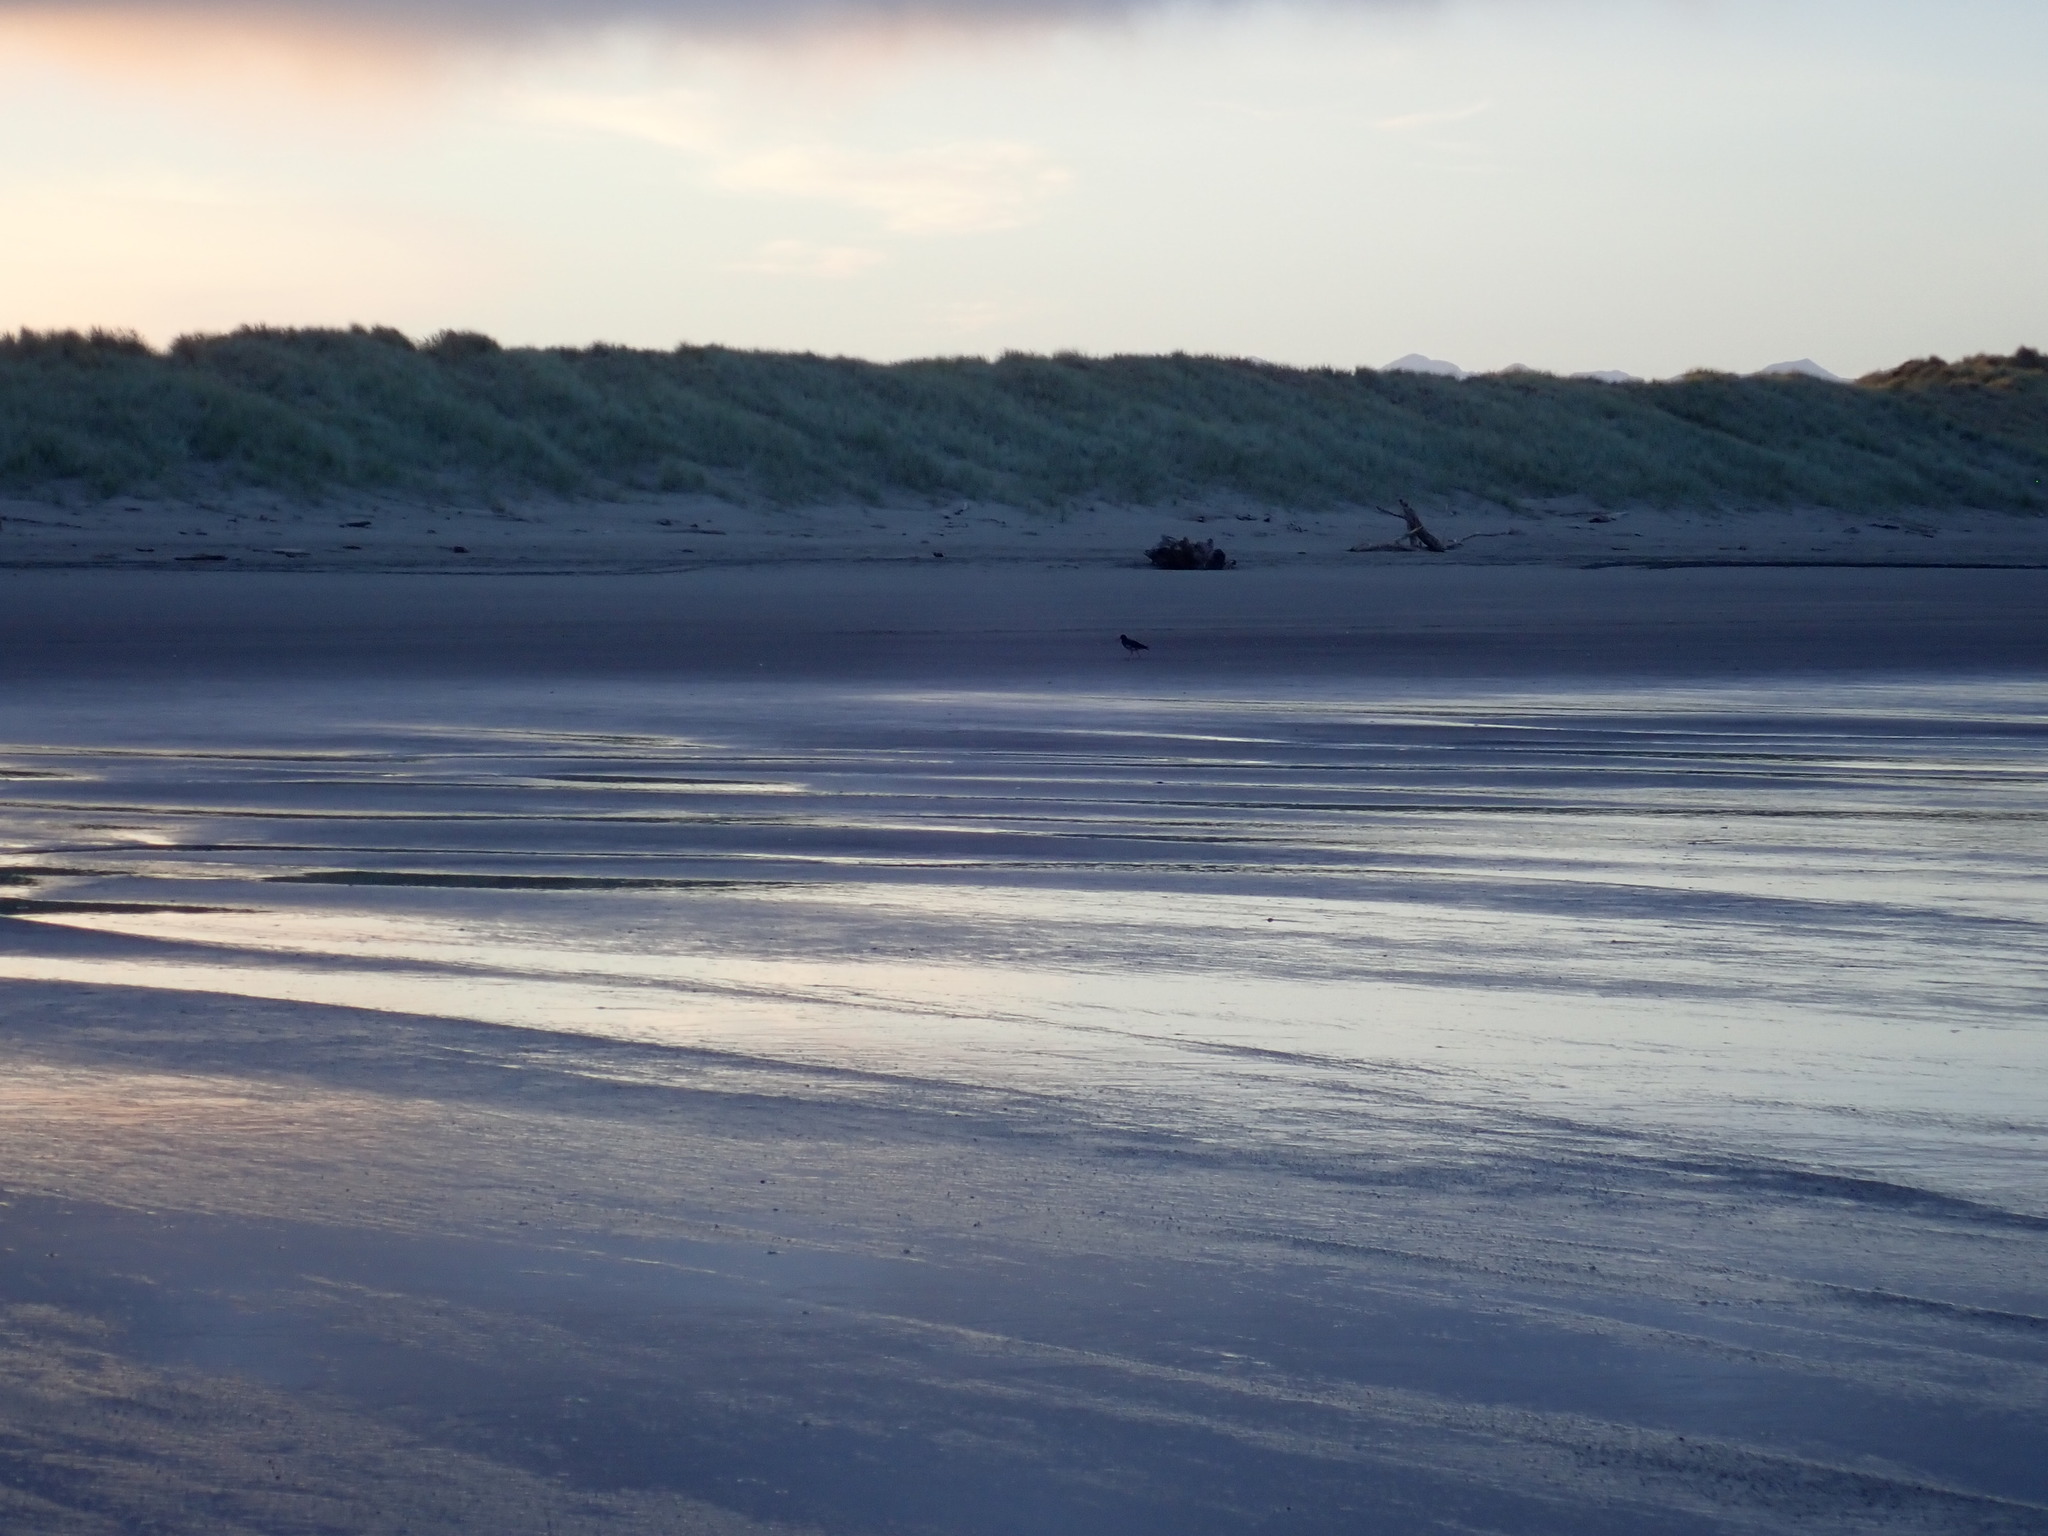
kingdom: Animalia
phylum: Chordata
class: Aves
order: Charadriiformes
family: Haematopodidae
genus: Haematopus
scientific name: Haematopus unicolor
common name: Variable oystercatcher
